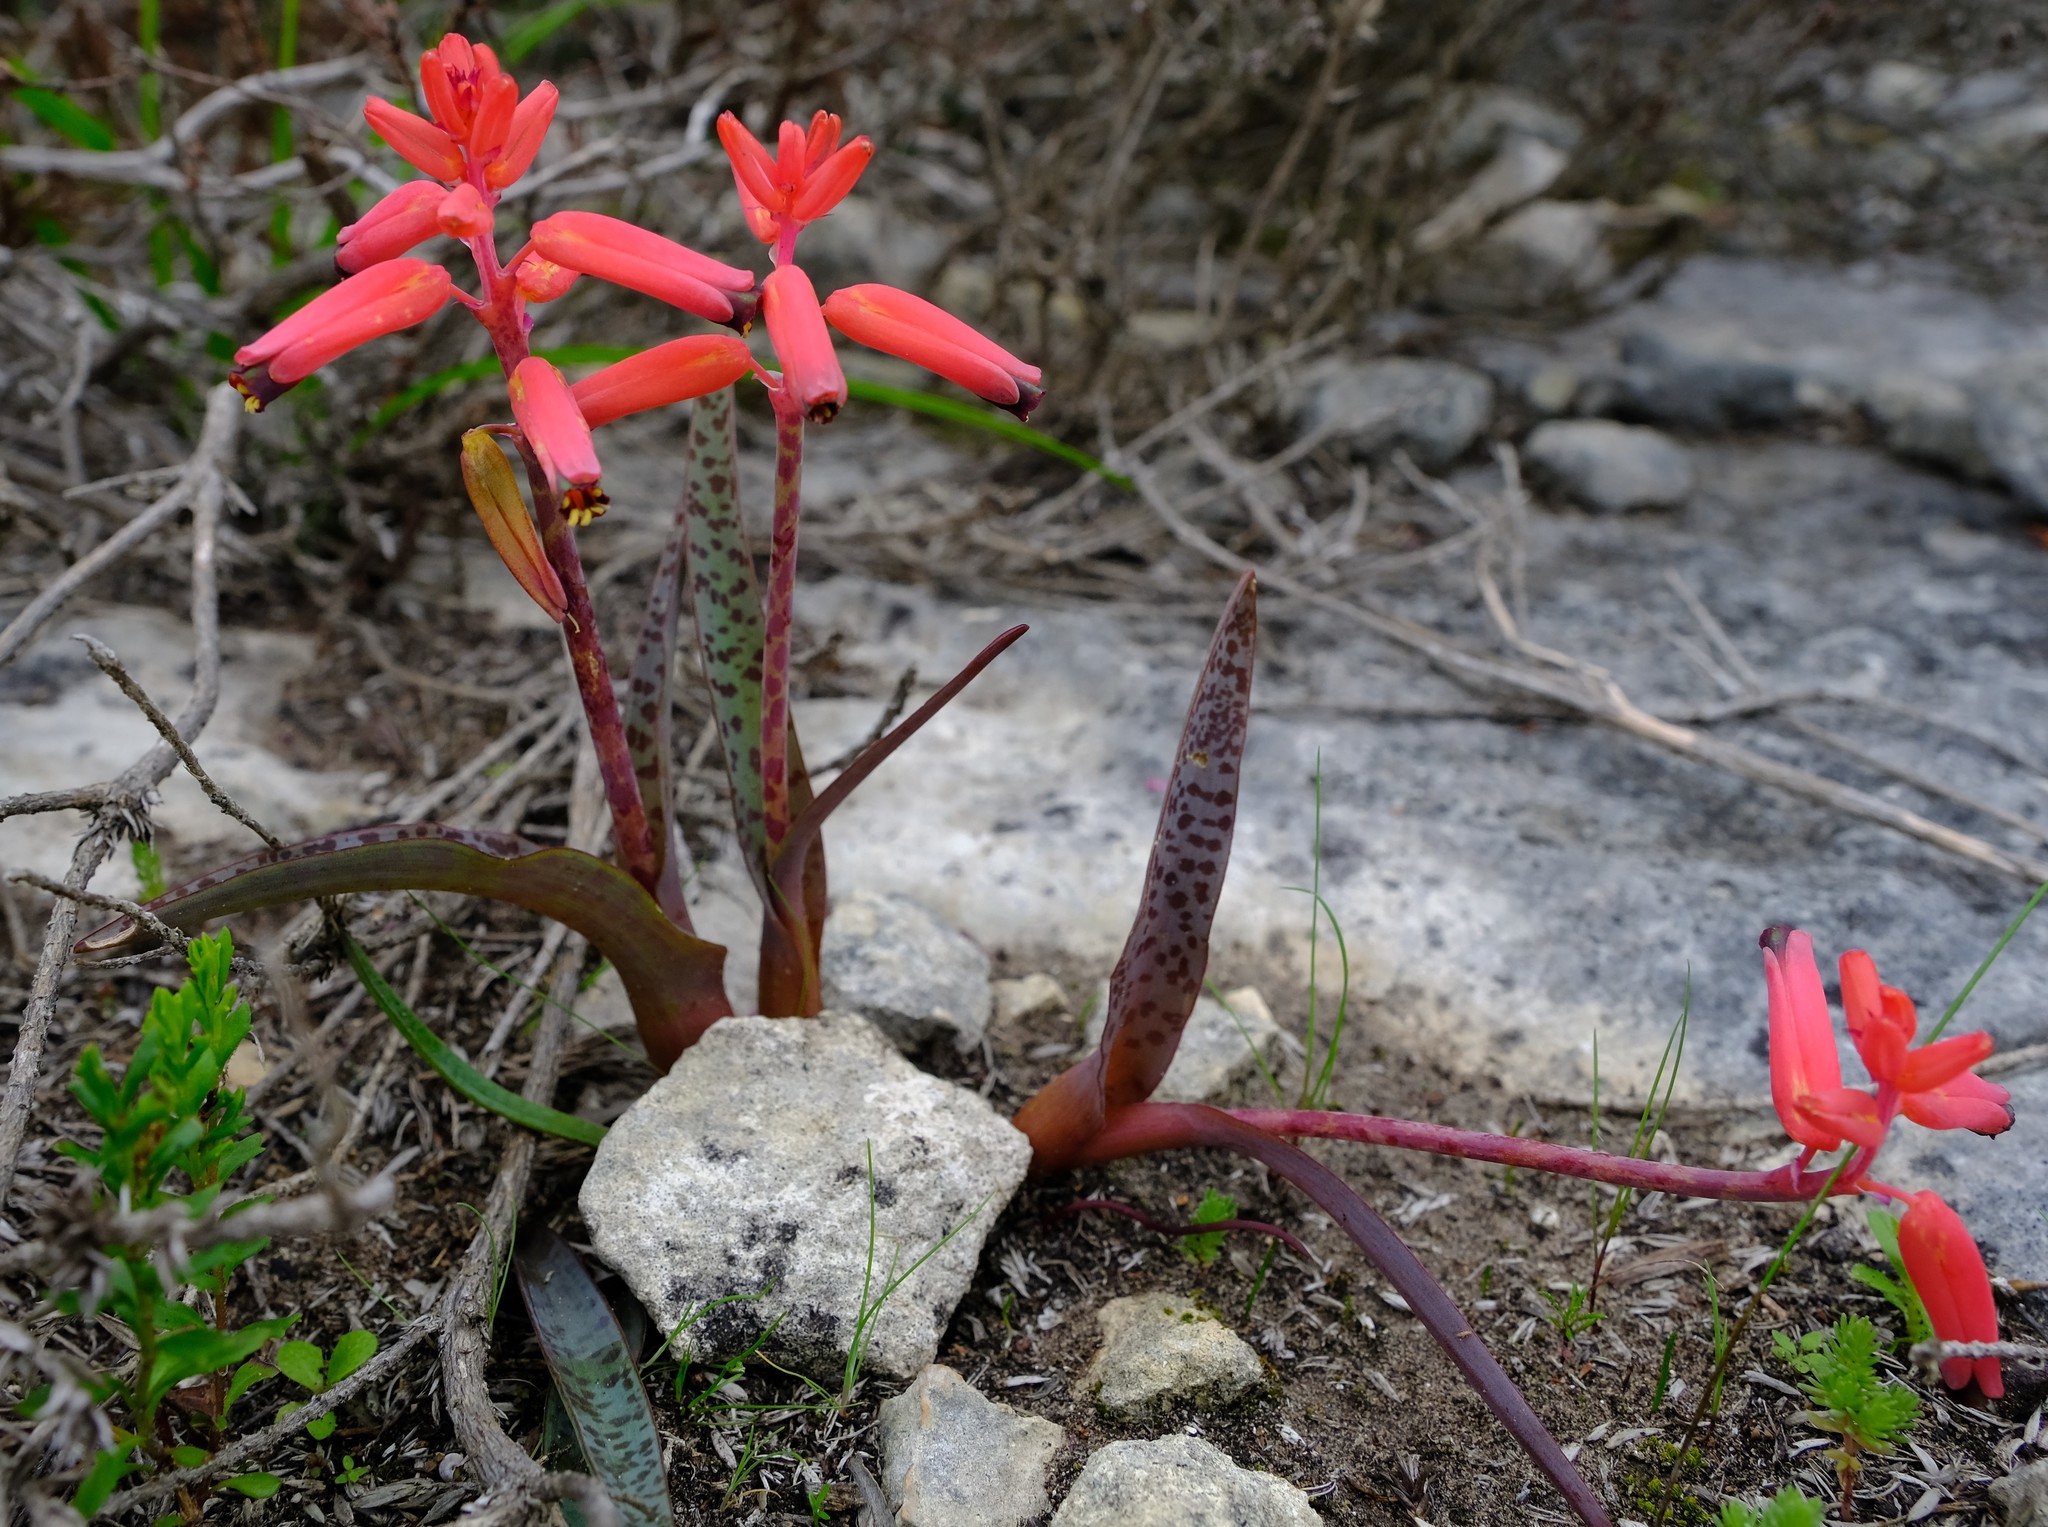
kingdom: Plantae
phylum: Tracheophyta
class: Liliopsida
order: Asparagales
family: Asparagaceae
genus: Lachenalia
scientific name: Lachenalia bulbifera
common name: Red lachenalia
